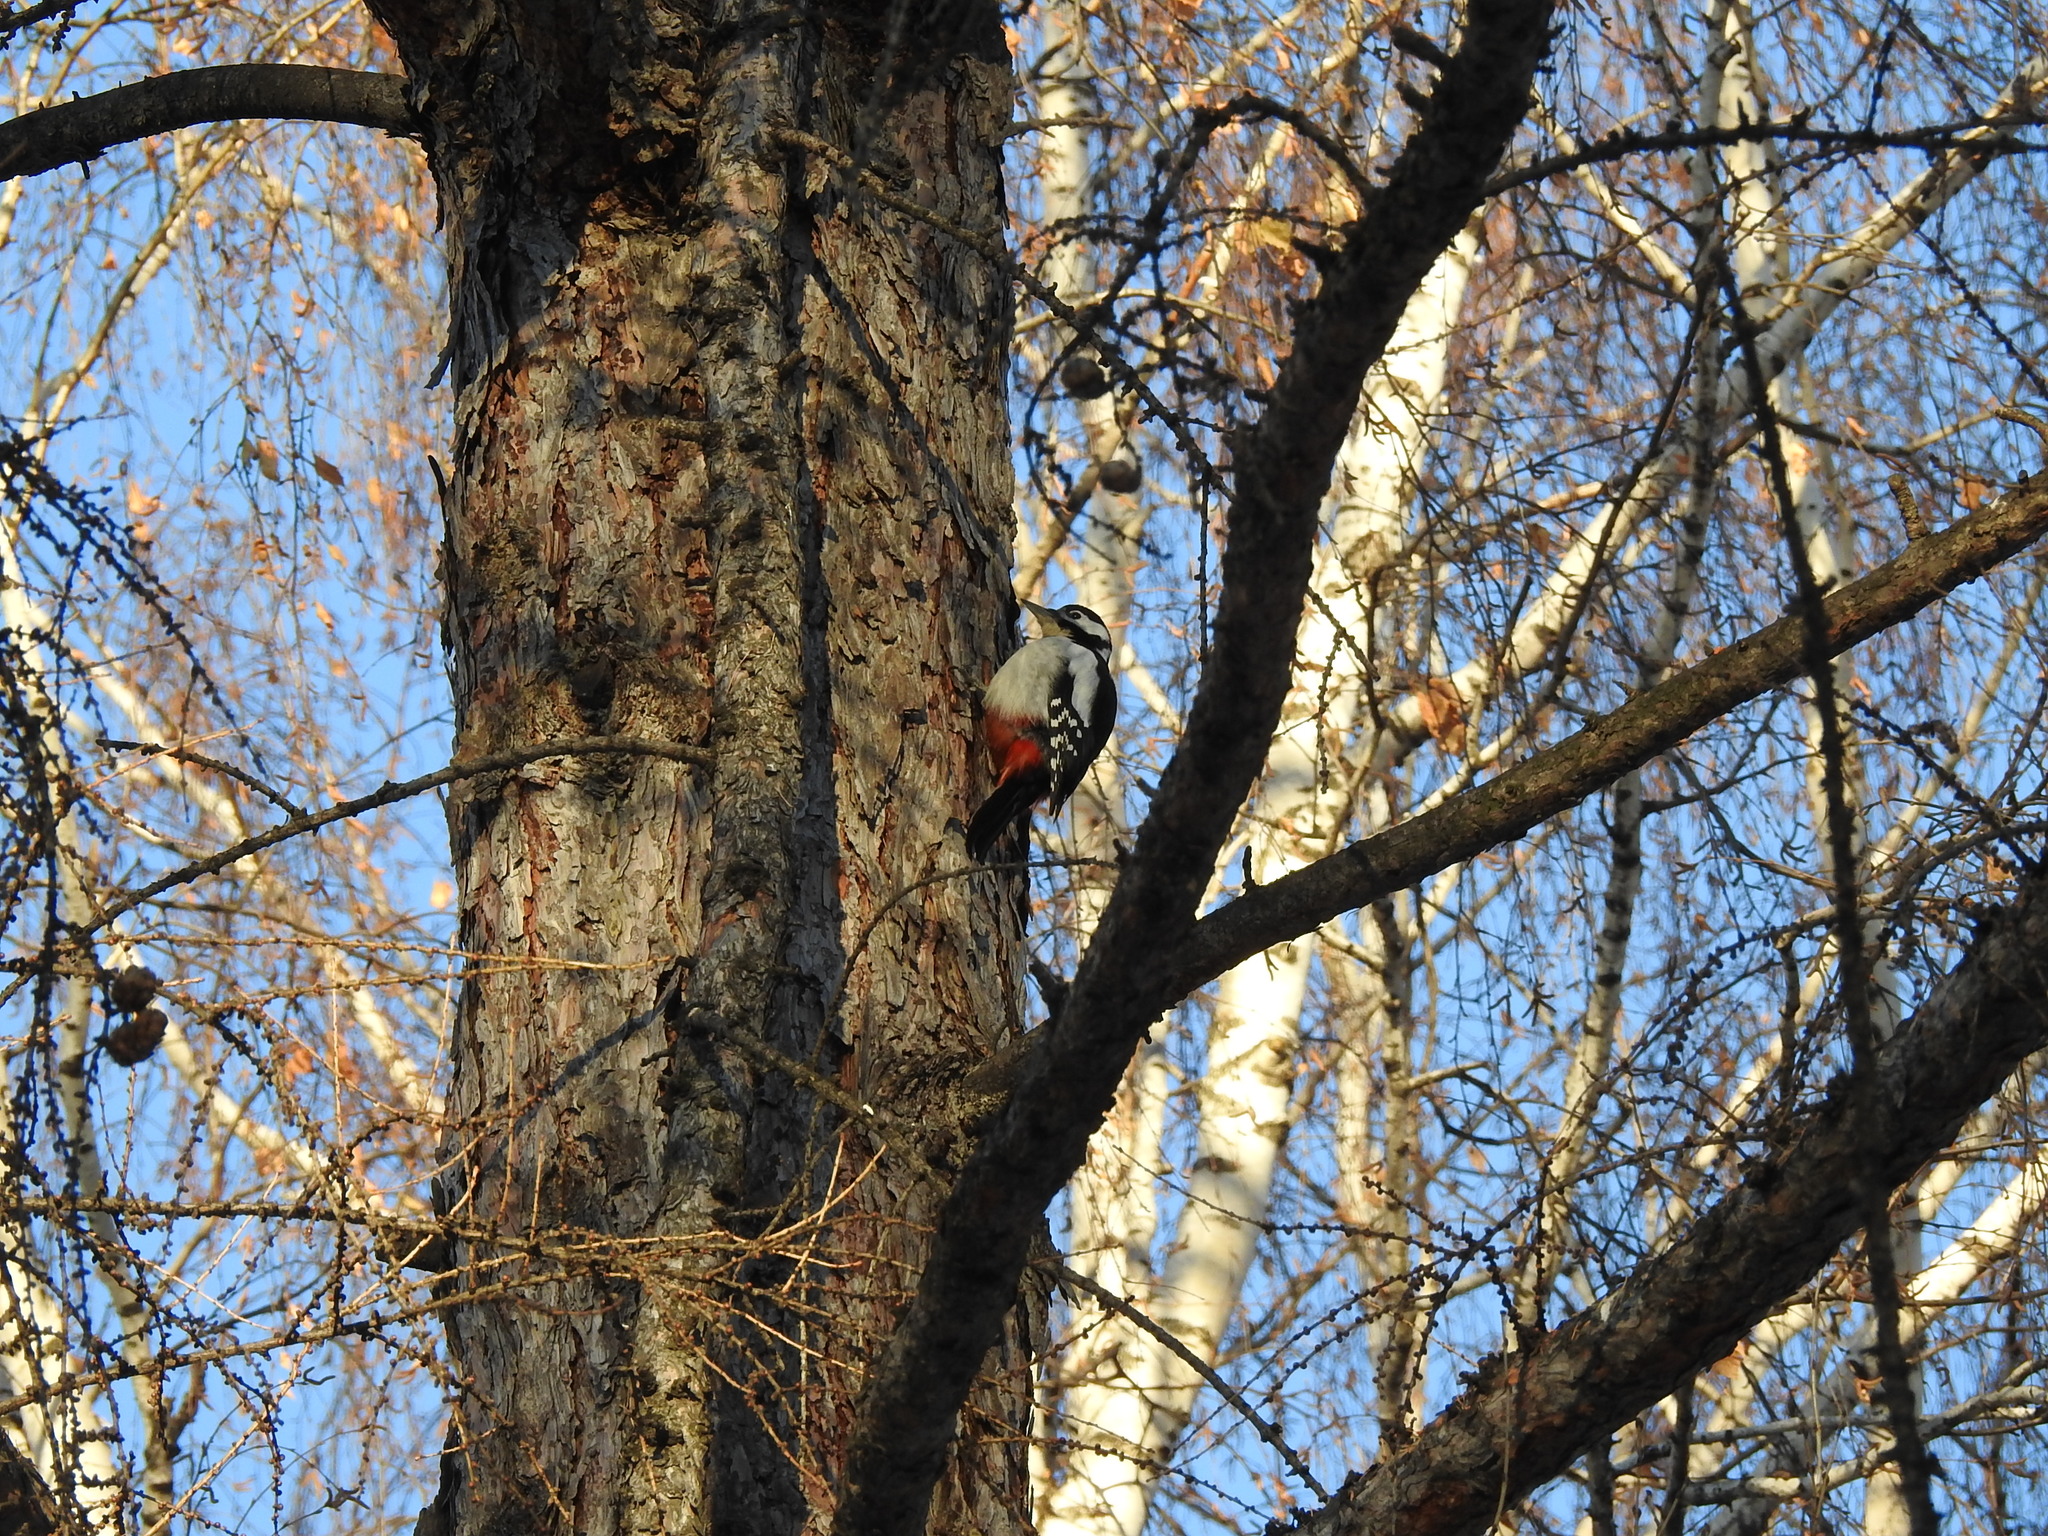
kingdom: Animalia
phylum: Chordata
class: Aves
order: Piciformes
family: Picidae
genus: Dendrocopos
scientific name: Dendrocopos major
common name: Great spotted woodpecker
